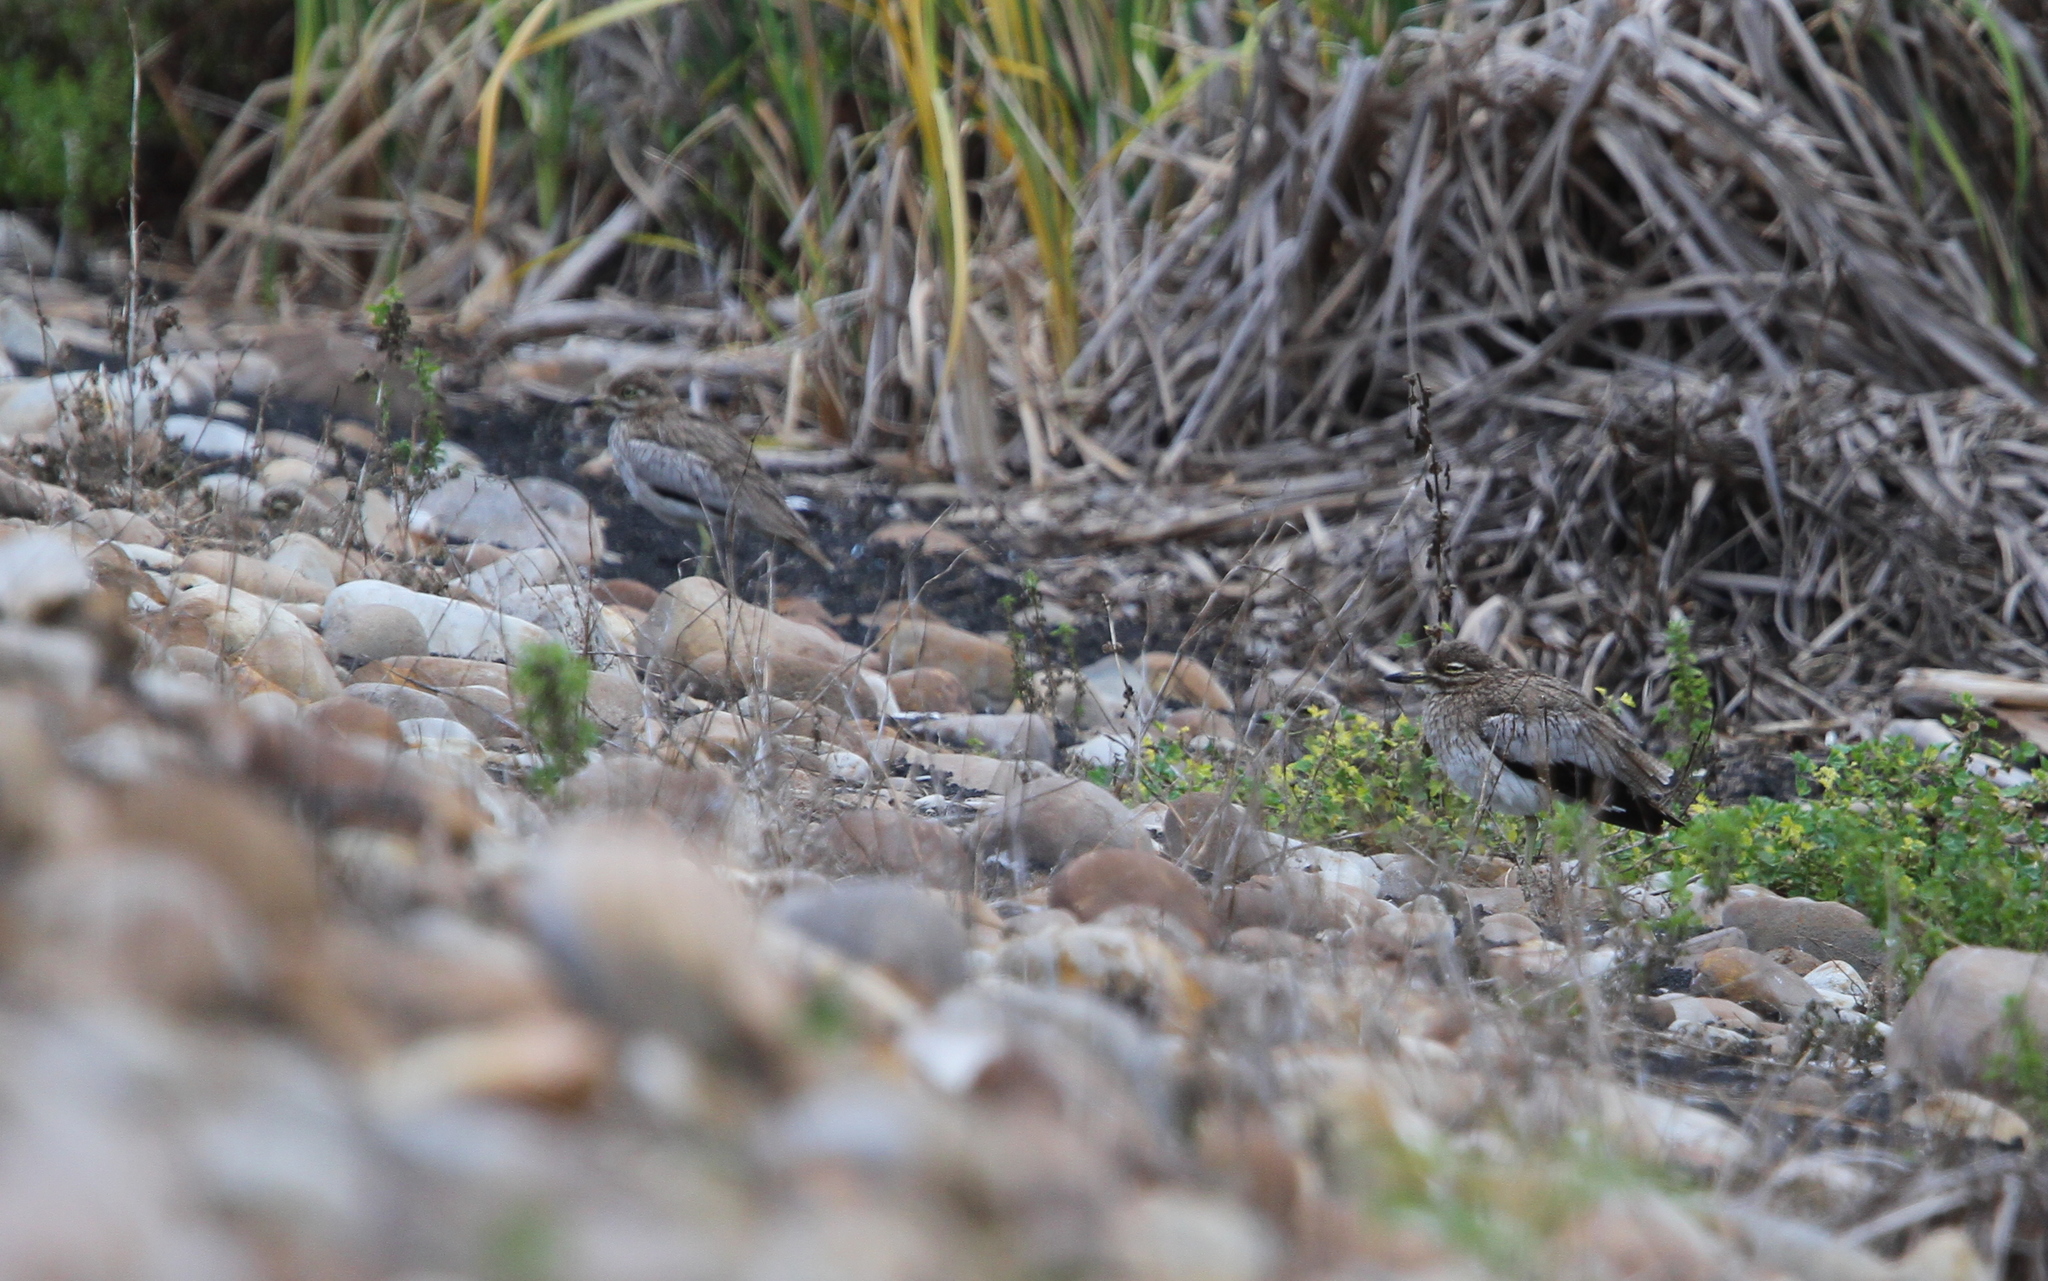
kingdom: Animalia
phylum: Chordata
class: Aves
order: Charadriiformes
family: Burhinidae
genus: Burhinus
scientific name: Burhinus vermiculatus
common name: Water thick-knee
